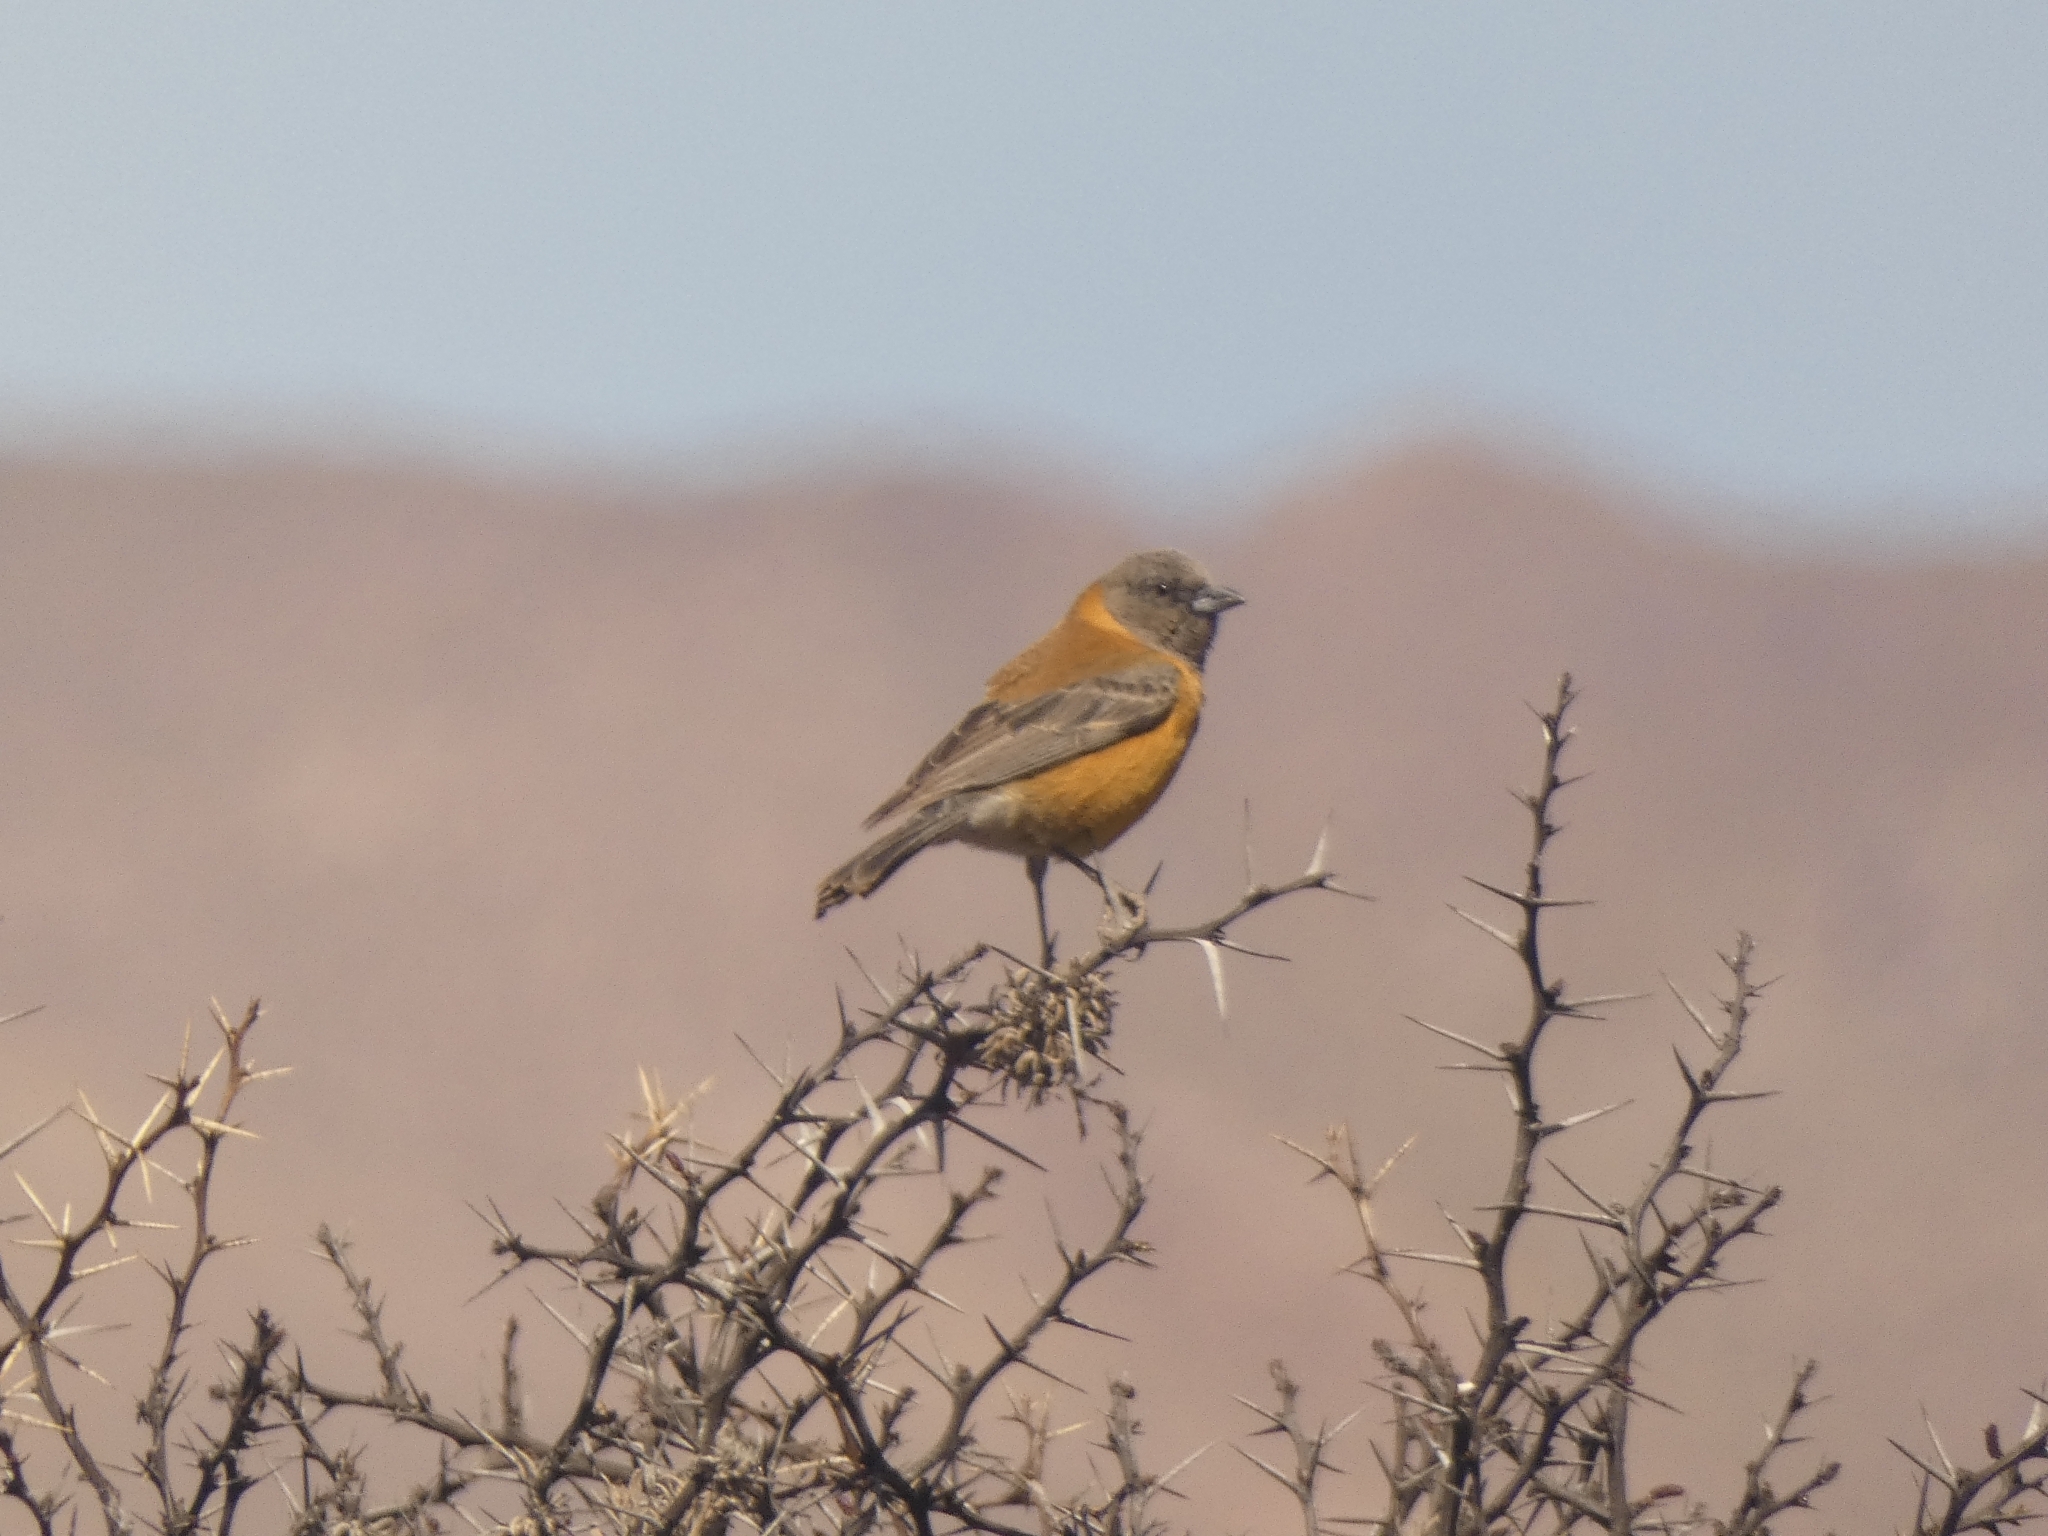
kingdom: Animalia
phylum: Chordata
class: Aves
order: Passeriformes
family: Thraupidae
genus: Phrygilus
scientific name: Phrygilus atriceps
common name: Black-hooded sierra finch
